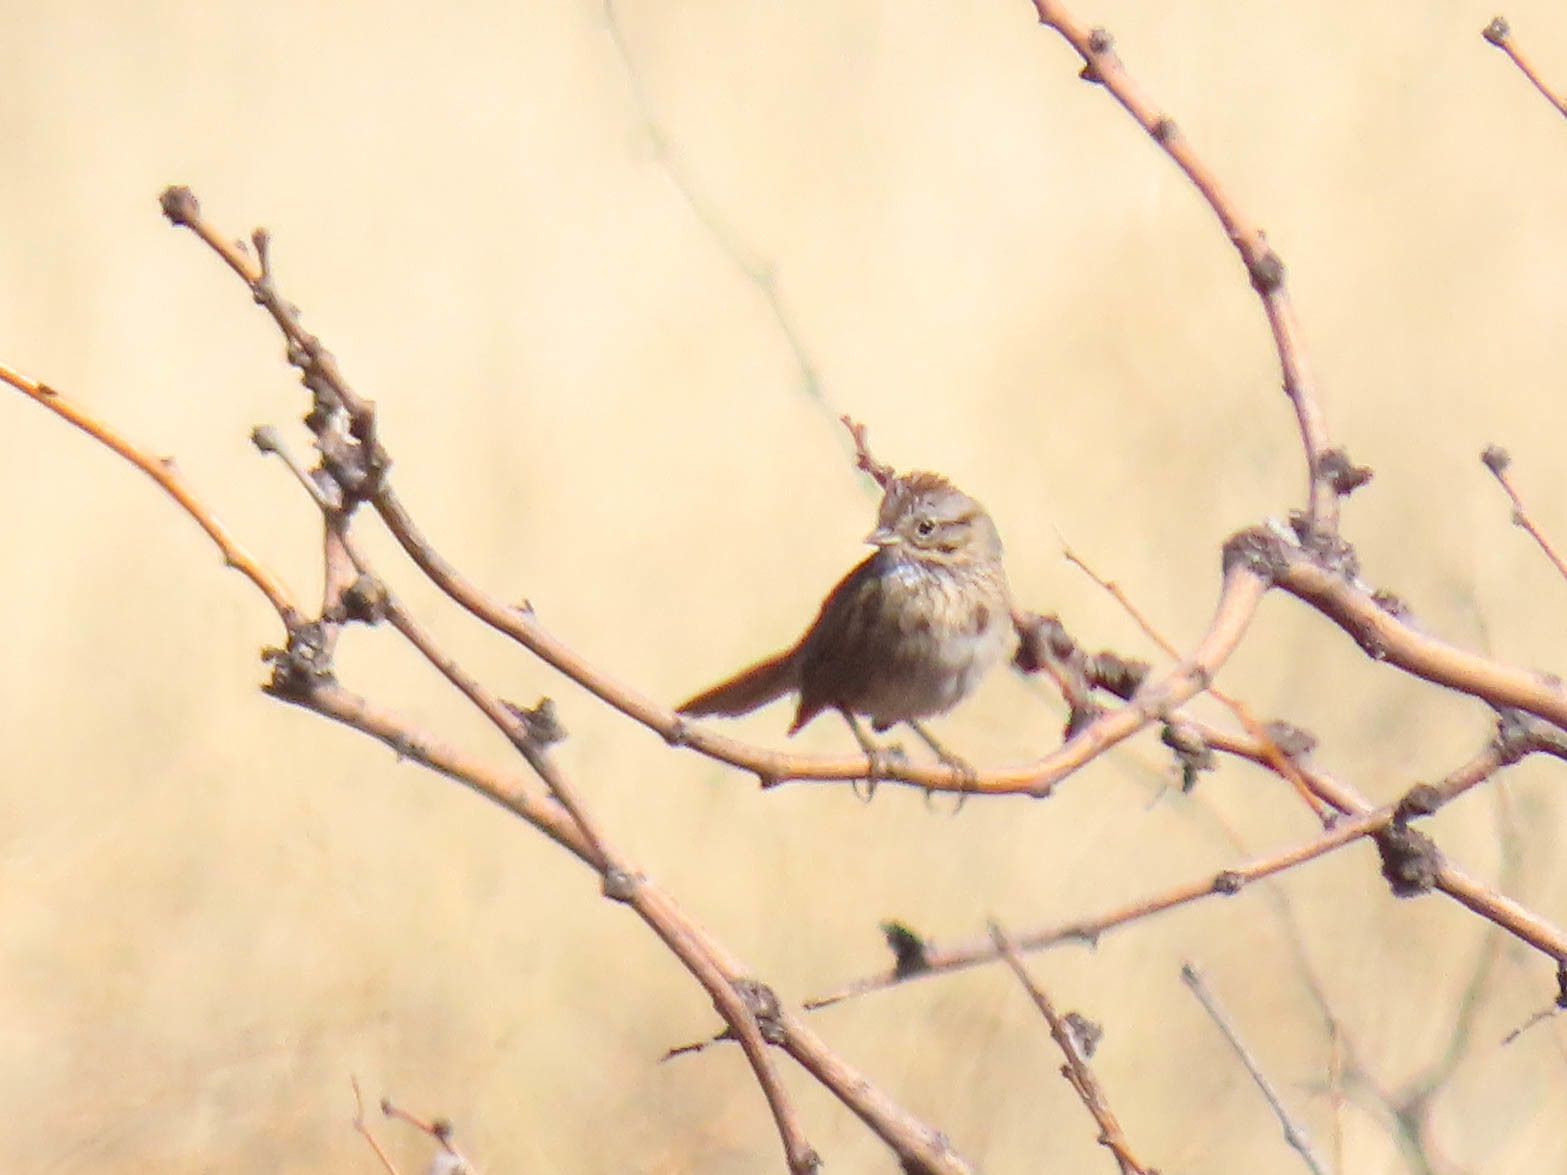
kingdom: Animalia
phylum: Chordata
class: Aves
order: Passeriformes
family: Passerellidae
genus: Melospiza
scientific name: Melospiza lincolnii
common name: Lincoln's sparrow
